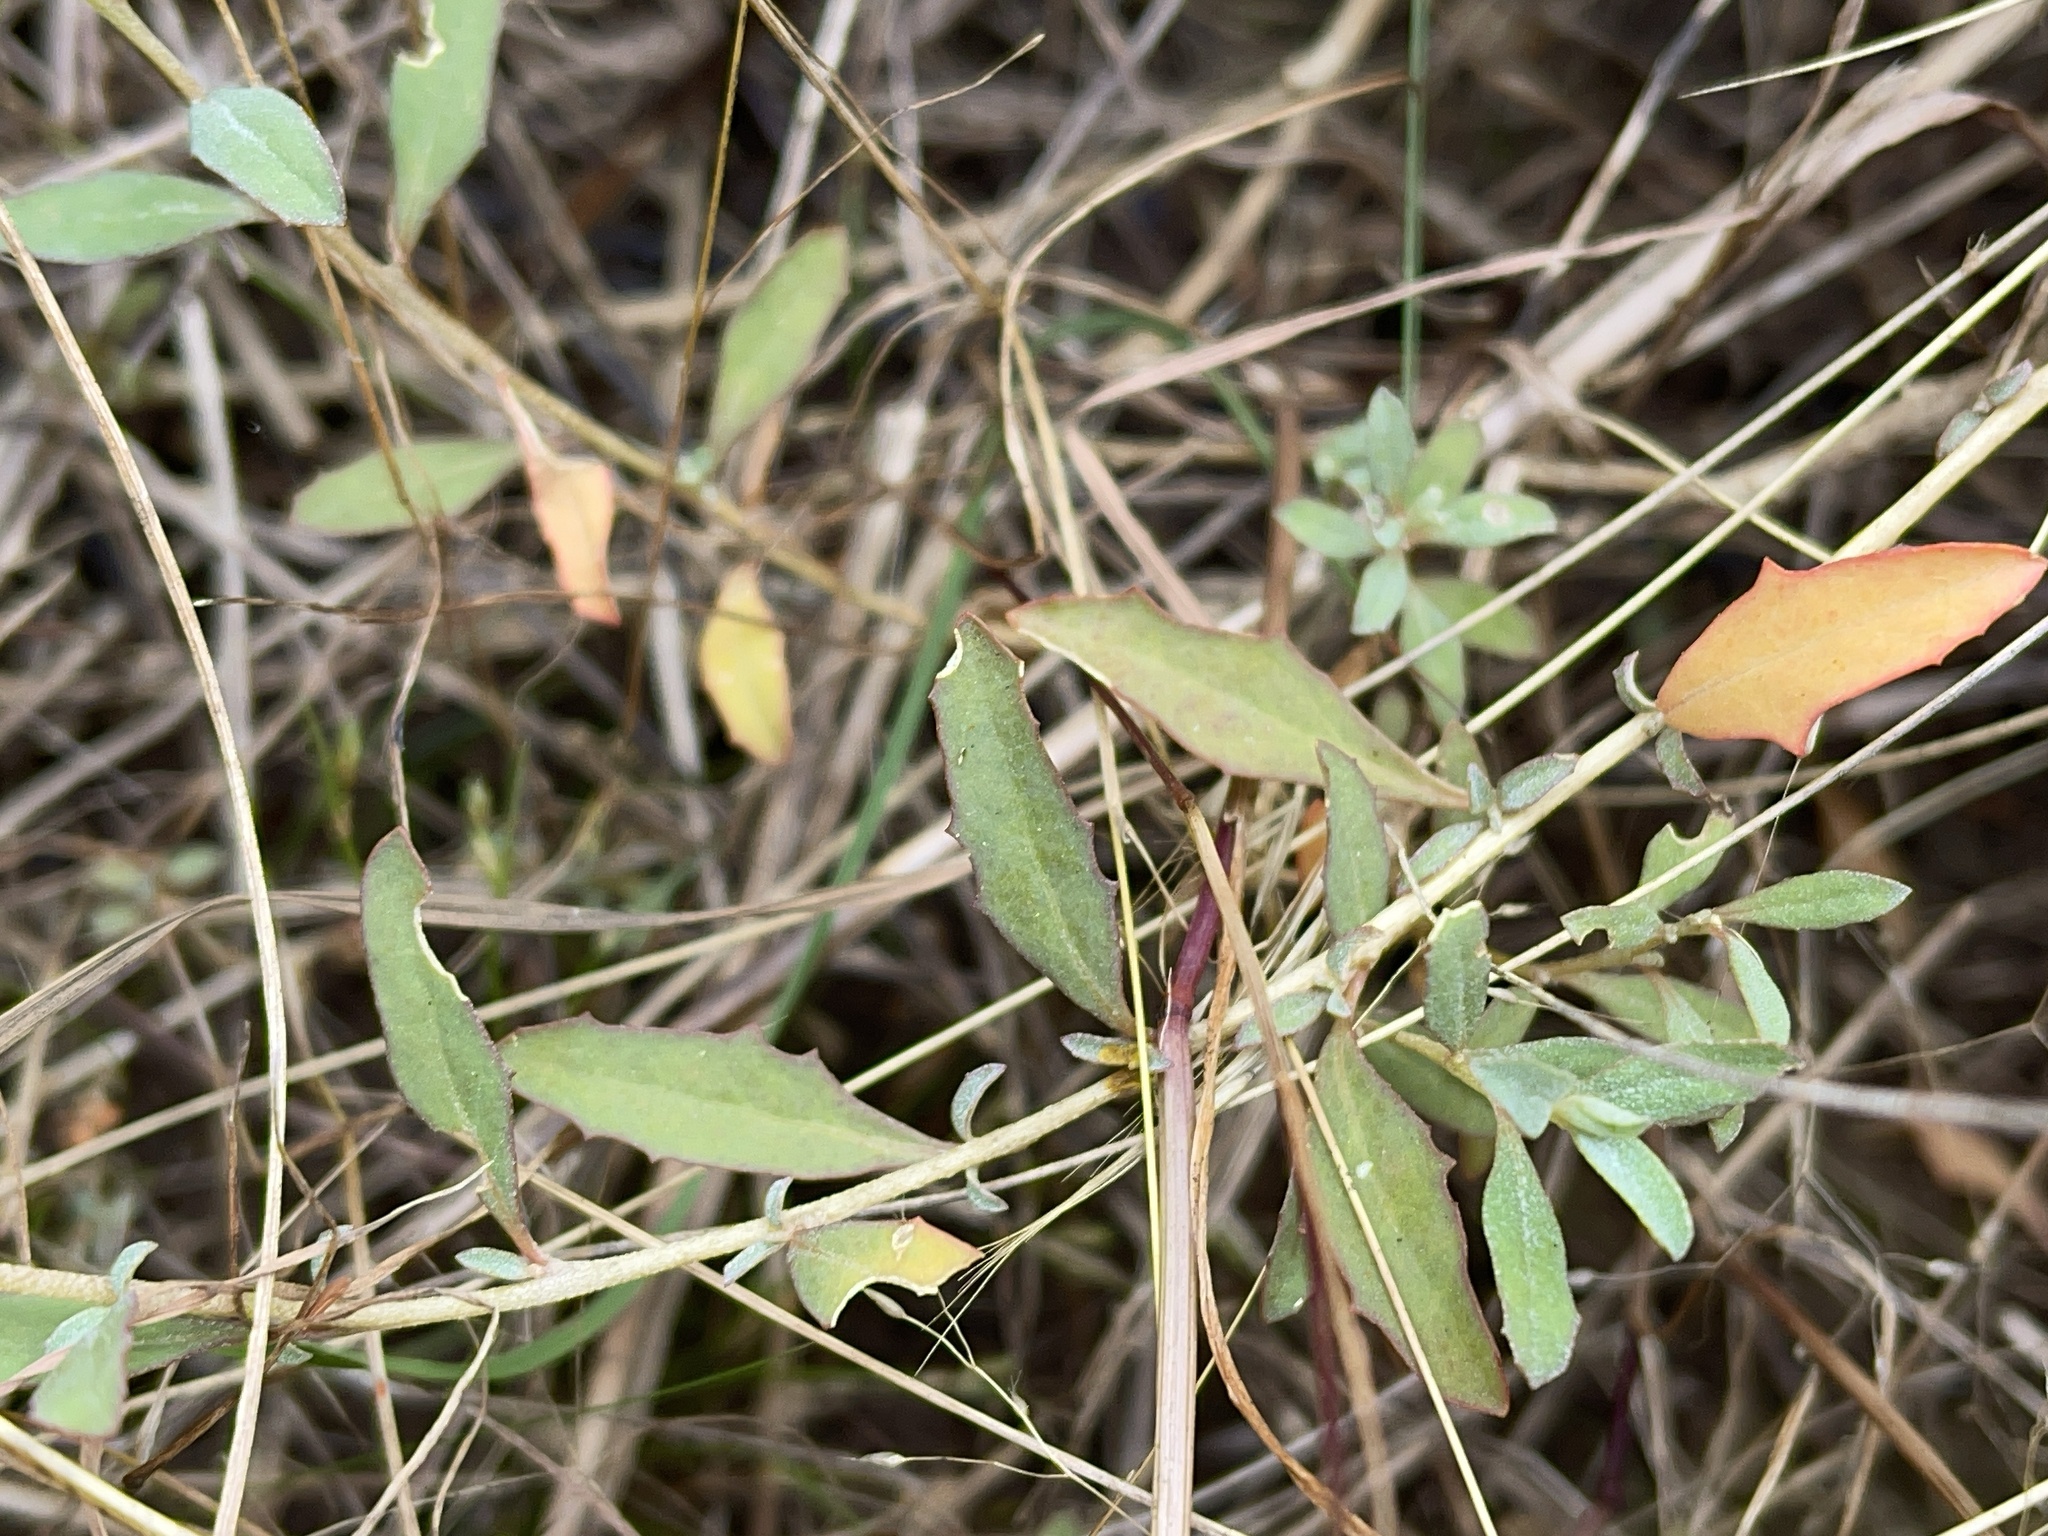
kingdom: Plantae
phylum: Tracheophyta
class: Magnoliopsida
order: Caryophyllales
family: Amaranthaceae
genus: Atriplex
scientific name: Atriplex semibaccata
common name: Australian saltbush
